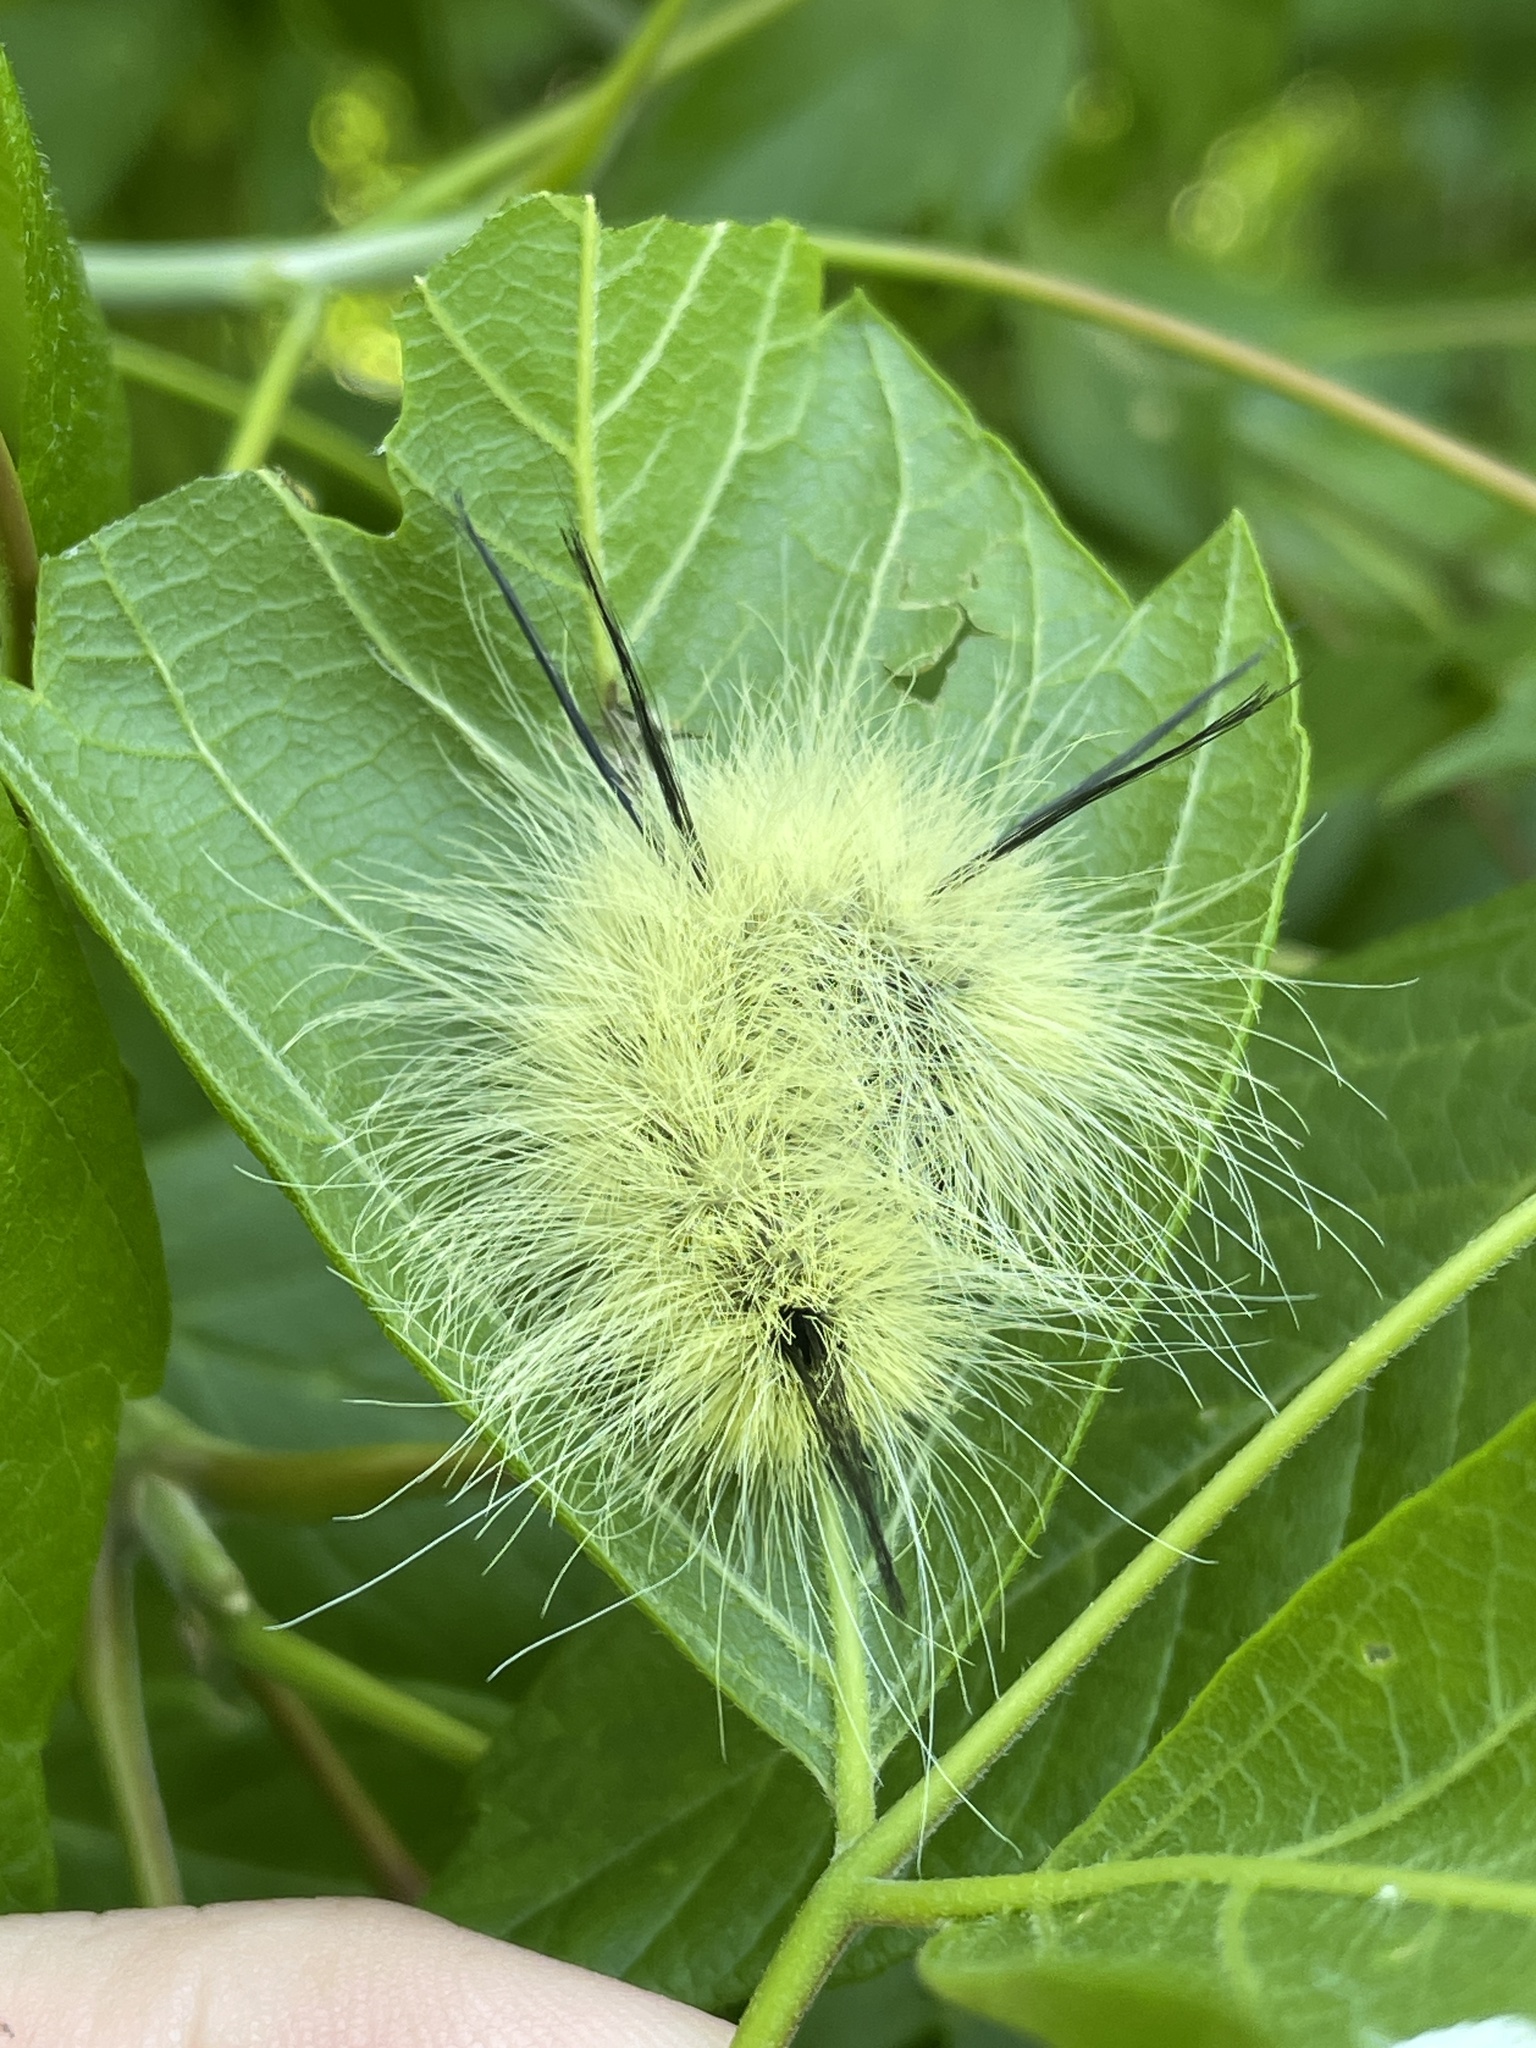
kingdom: Animalia
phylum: Arthropoda
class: Insecta
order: Lepidoptera
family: Noctuidae
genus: Acronicta
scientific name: Acronicta americana
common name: American dagger
